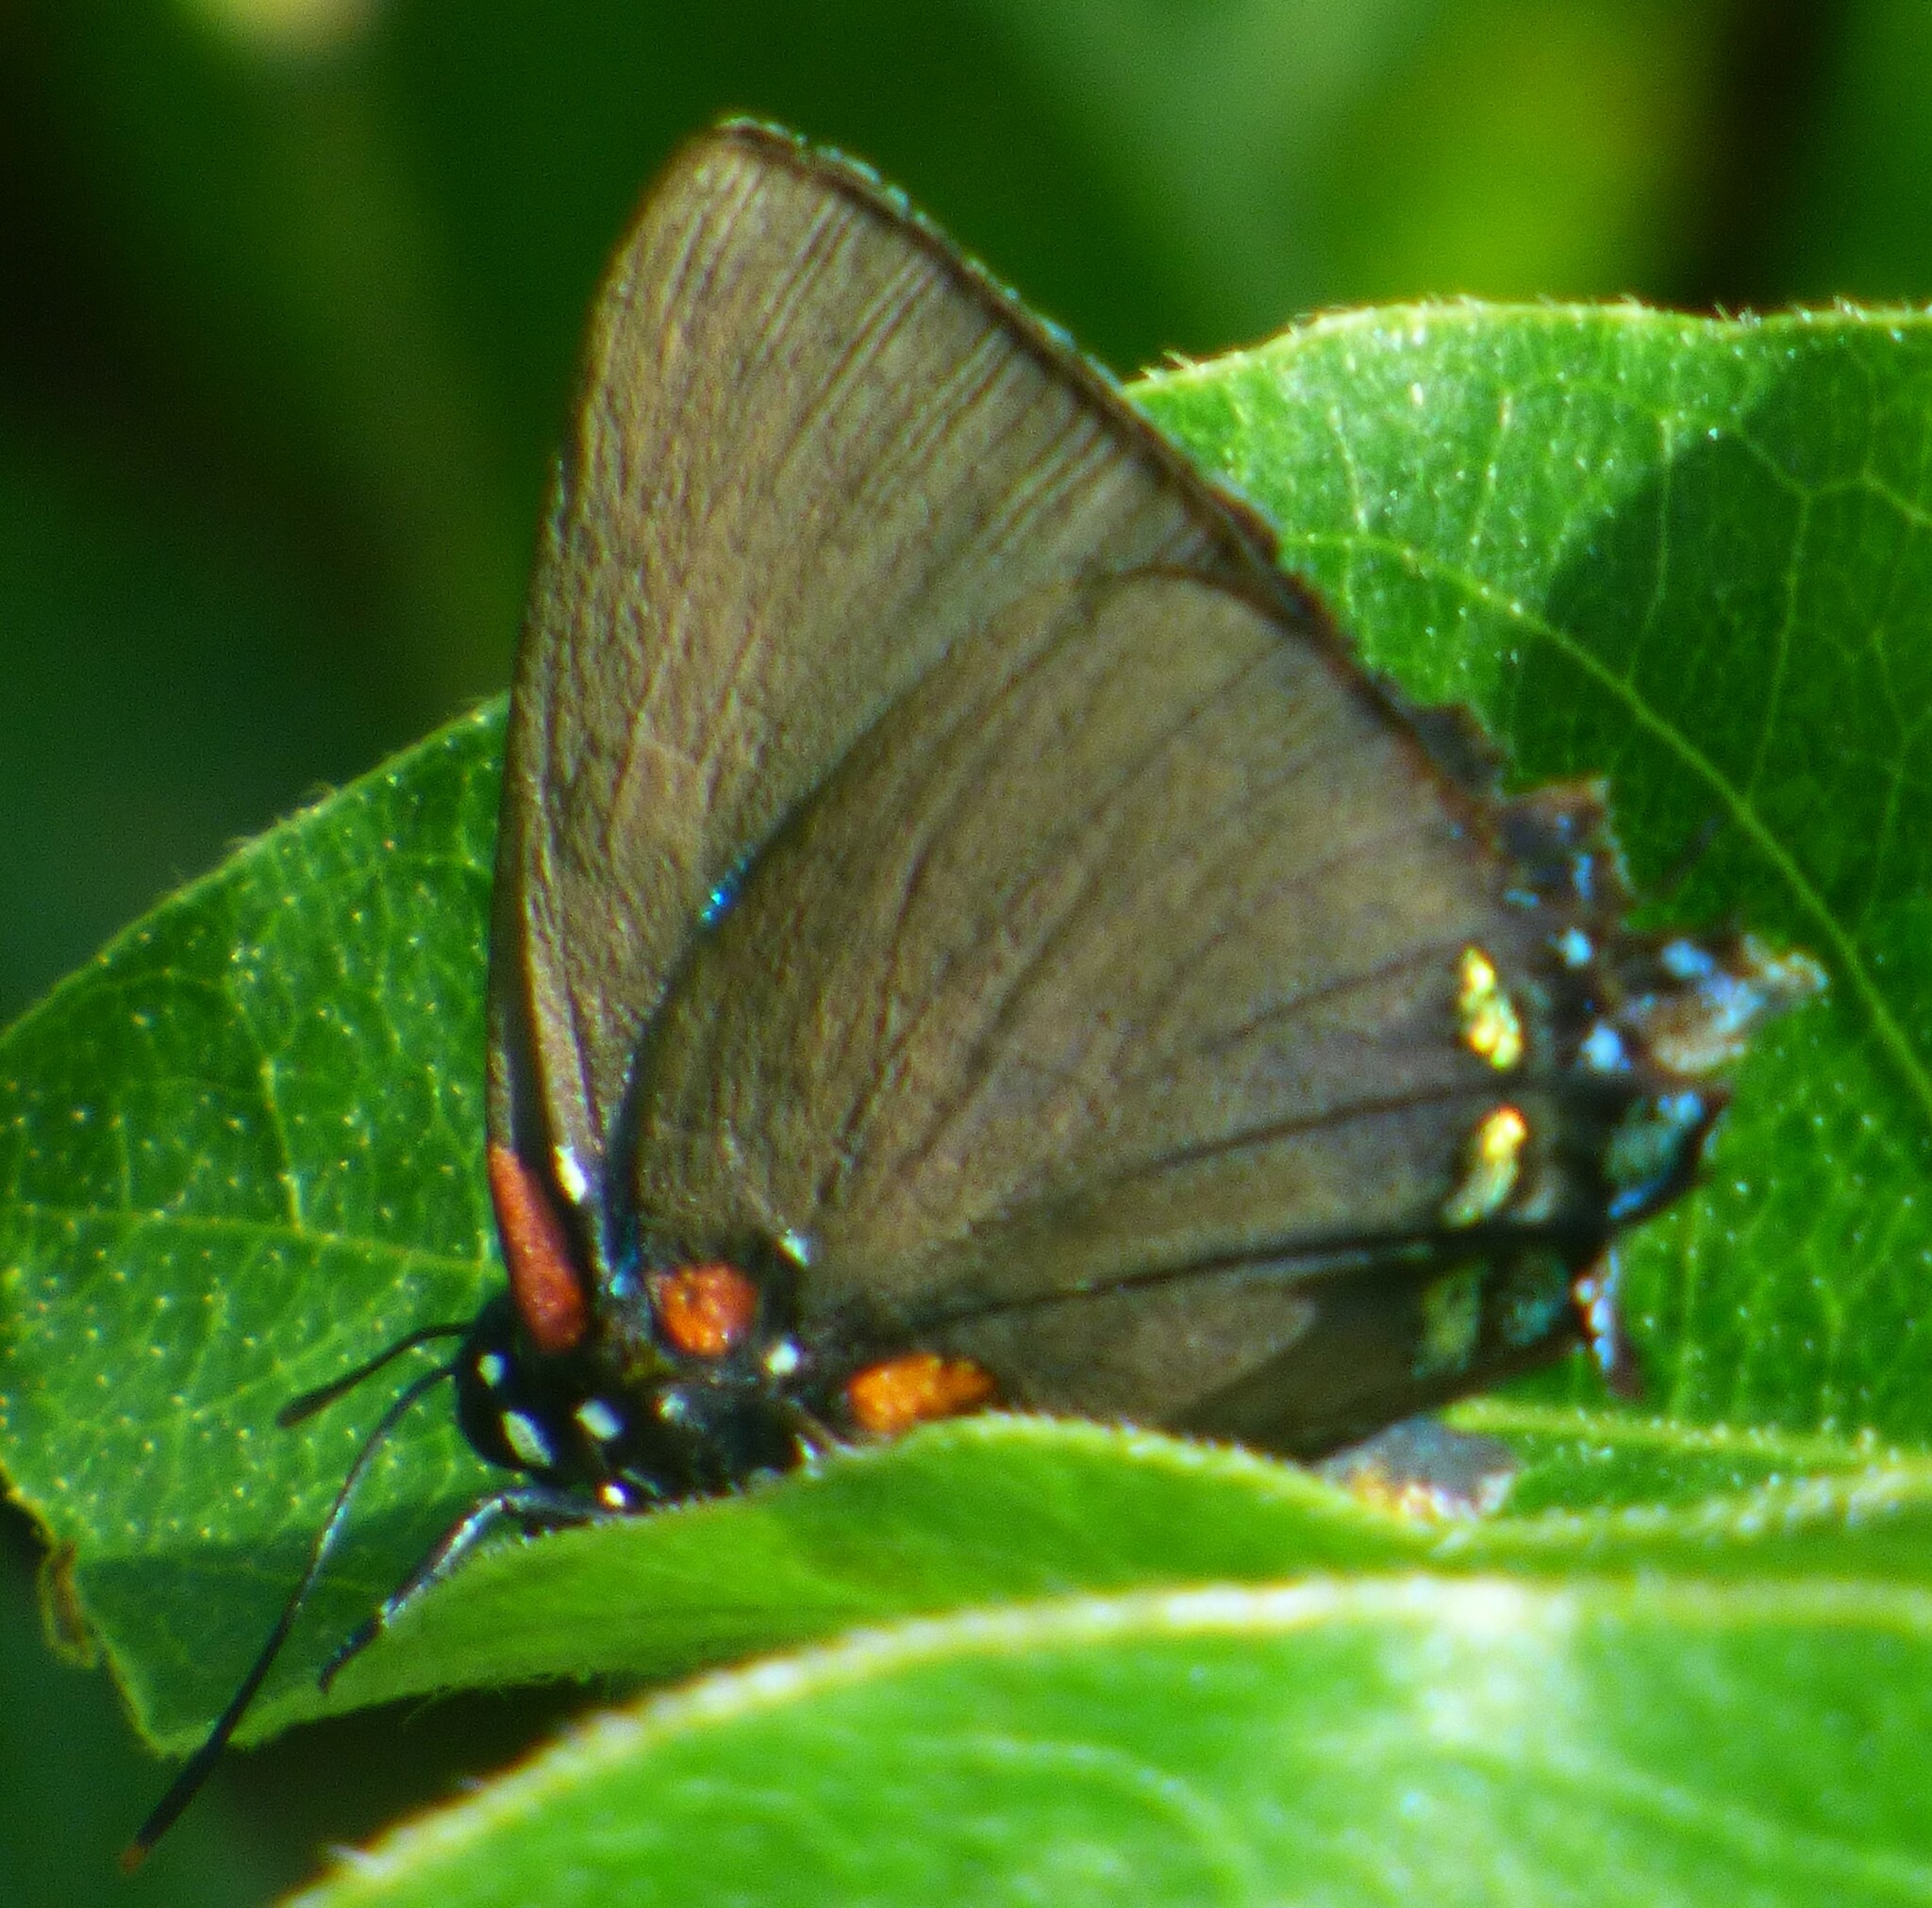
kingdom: Animalia
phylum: Arthropoda
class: Insecta
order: Lepidoptera
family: Lycaenidae
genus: Atlides
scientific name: Atlides halesus
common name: Great purple hairstreak
